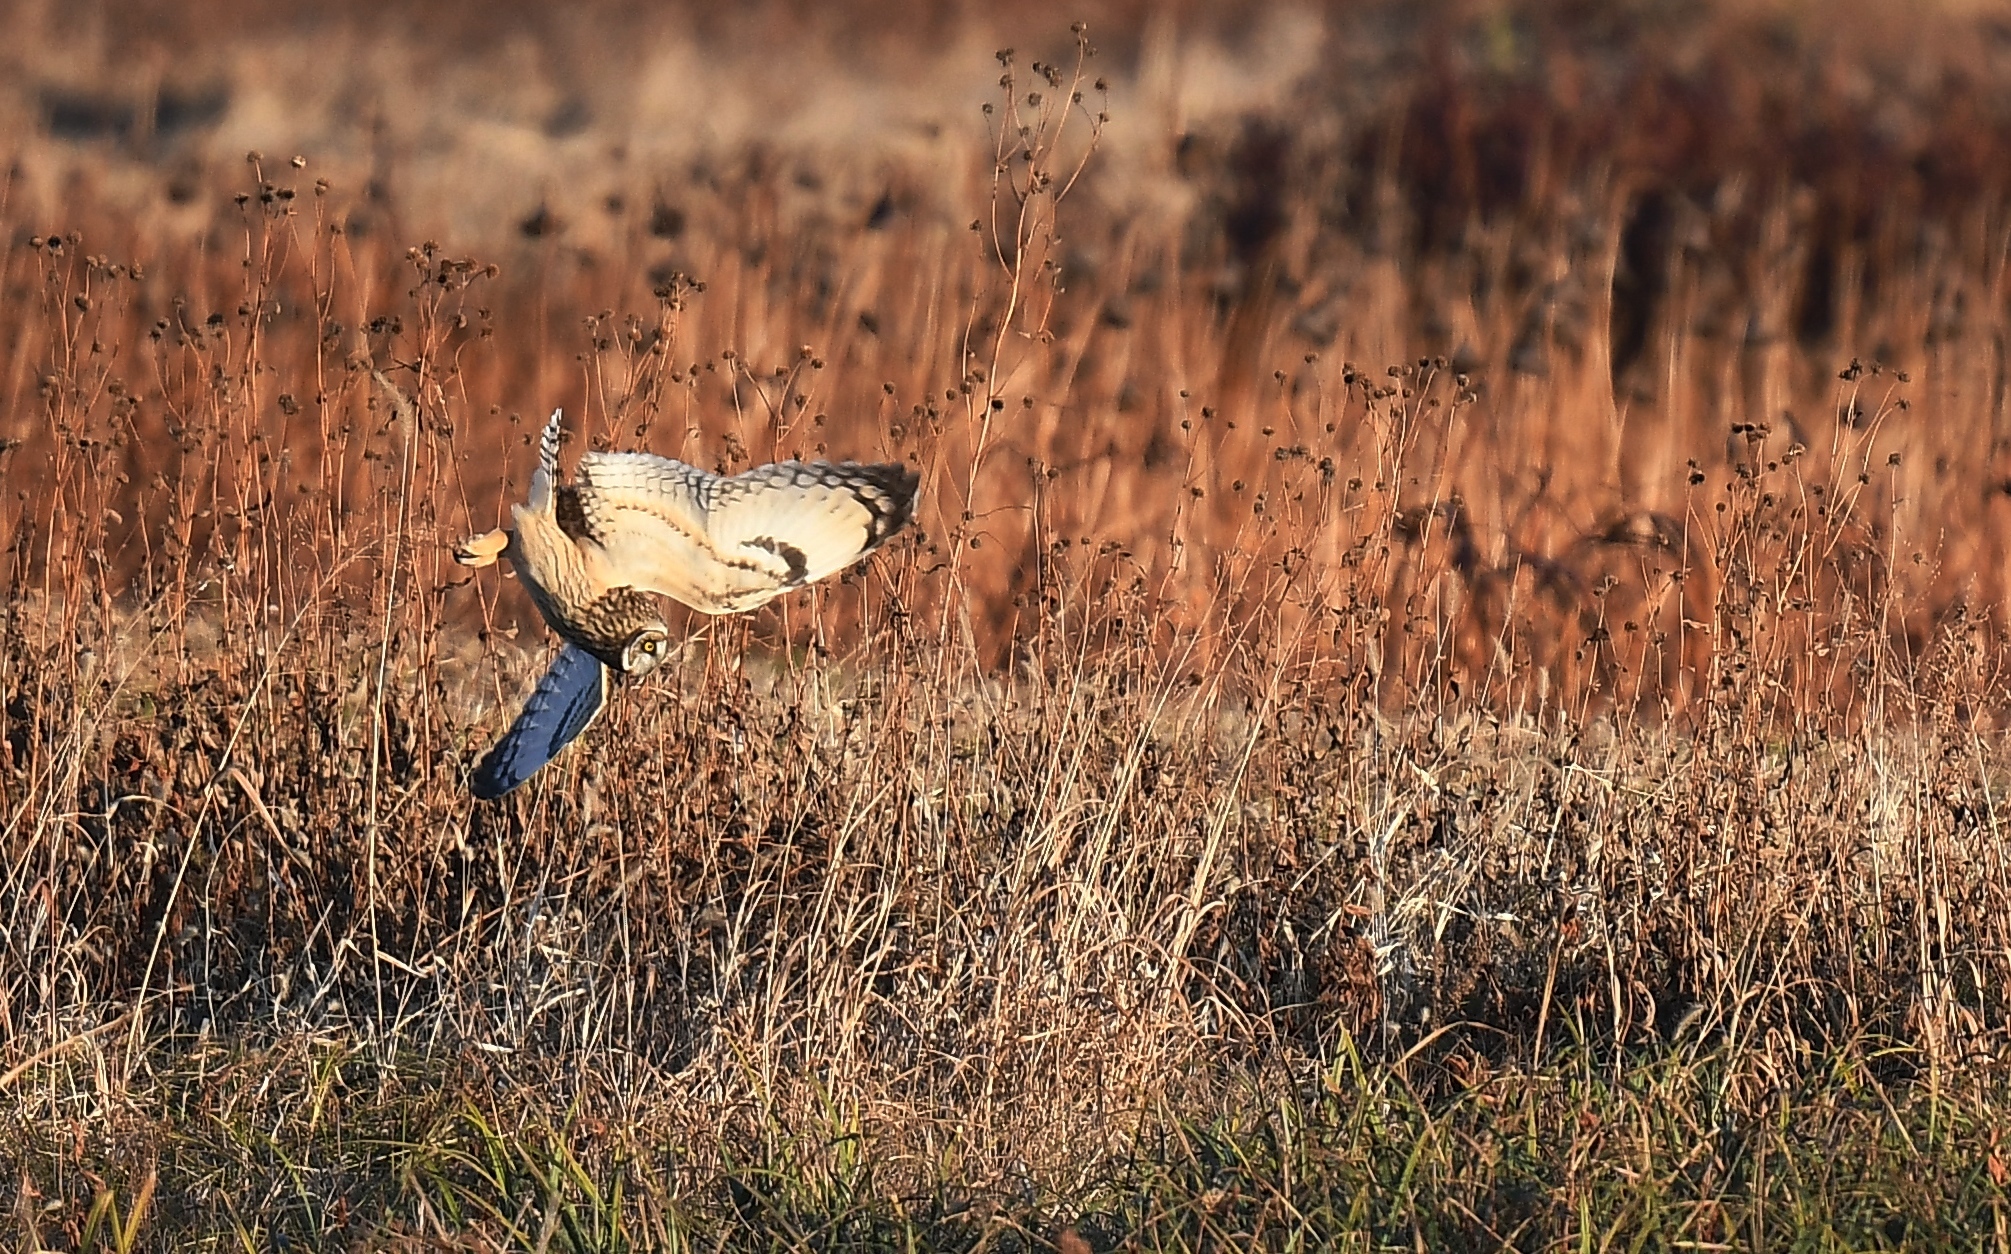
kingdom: Animalia
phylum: Chordata
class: Aves
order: Strigiformes
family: Strigidae
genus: Asio
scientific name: Asio flammeus
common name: Short-eared owl
